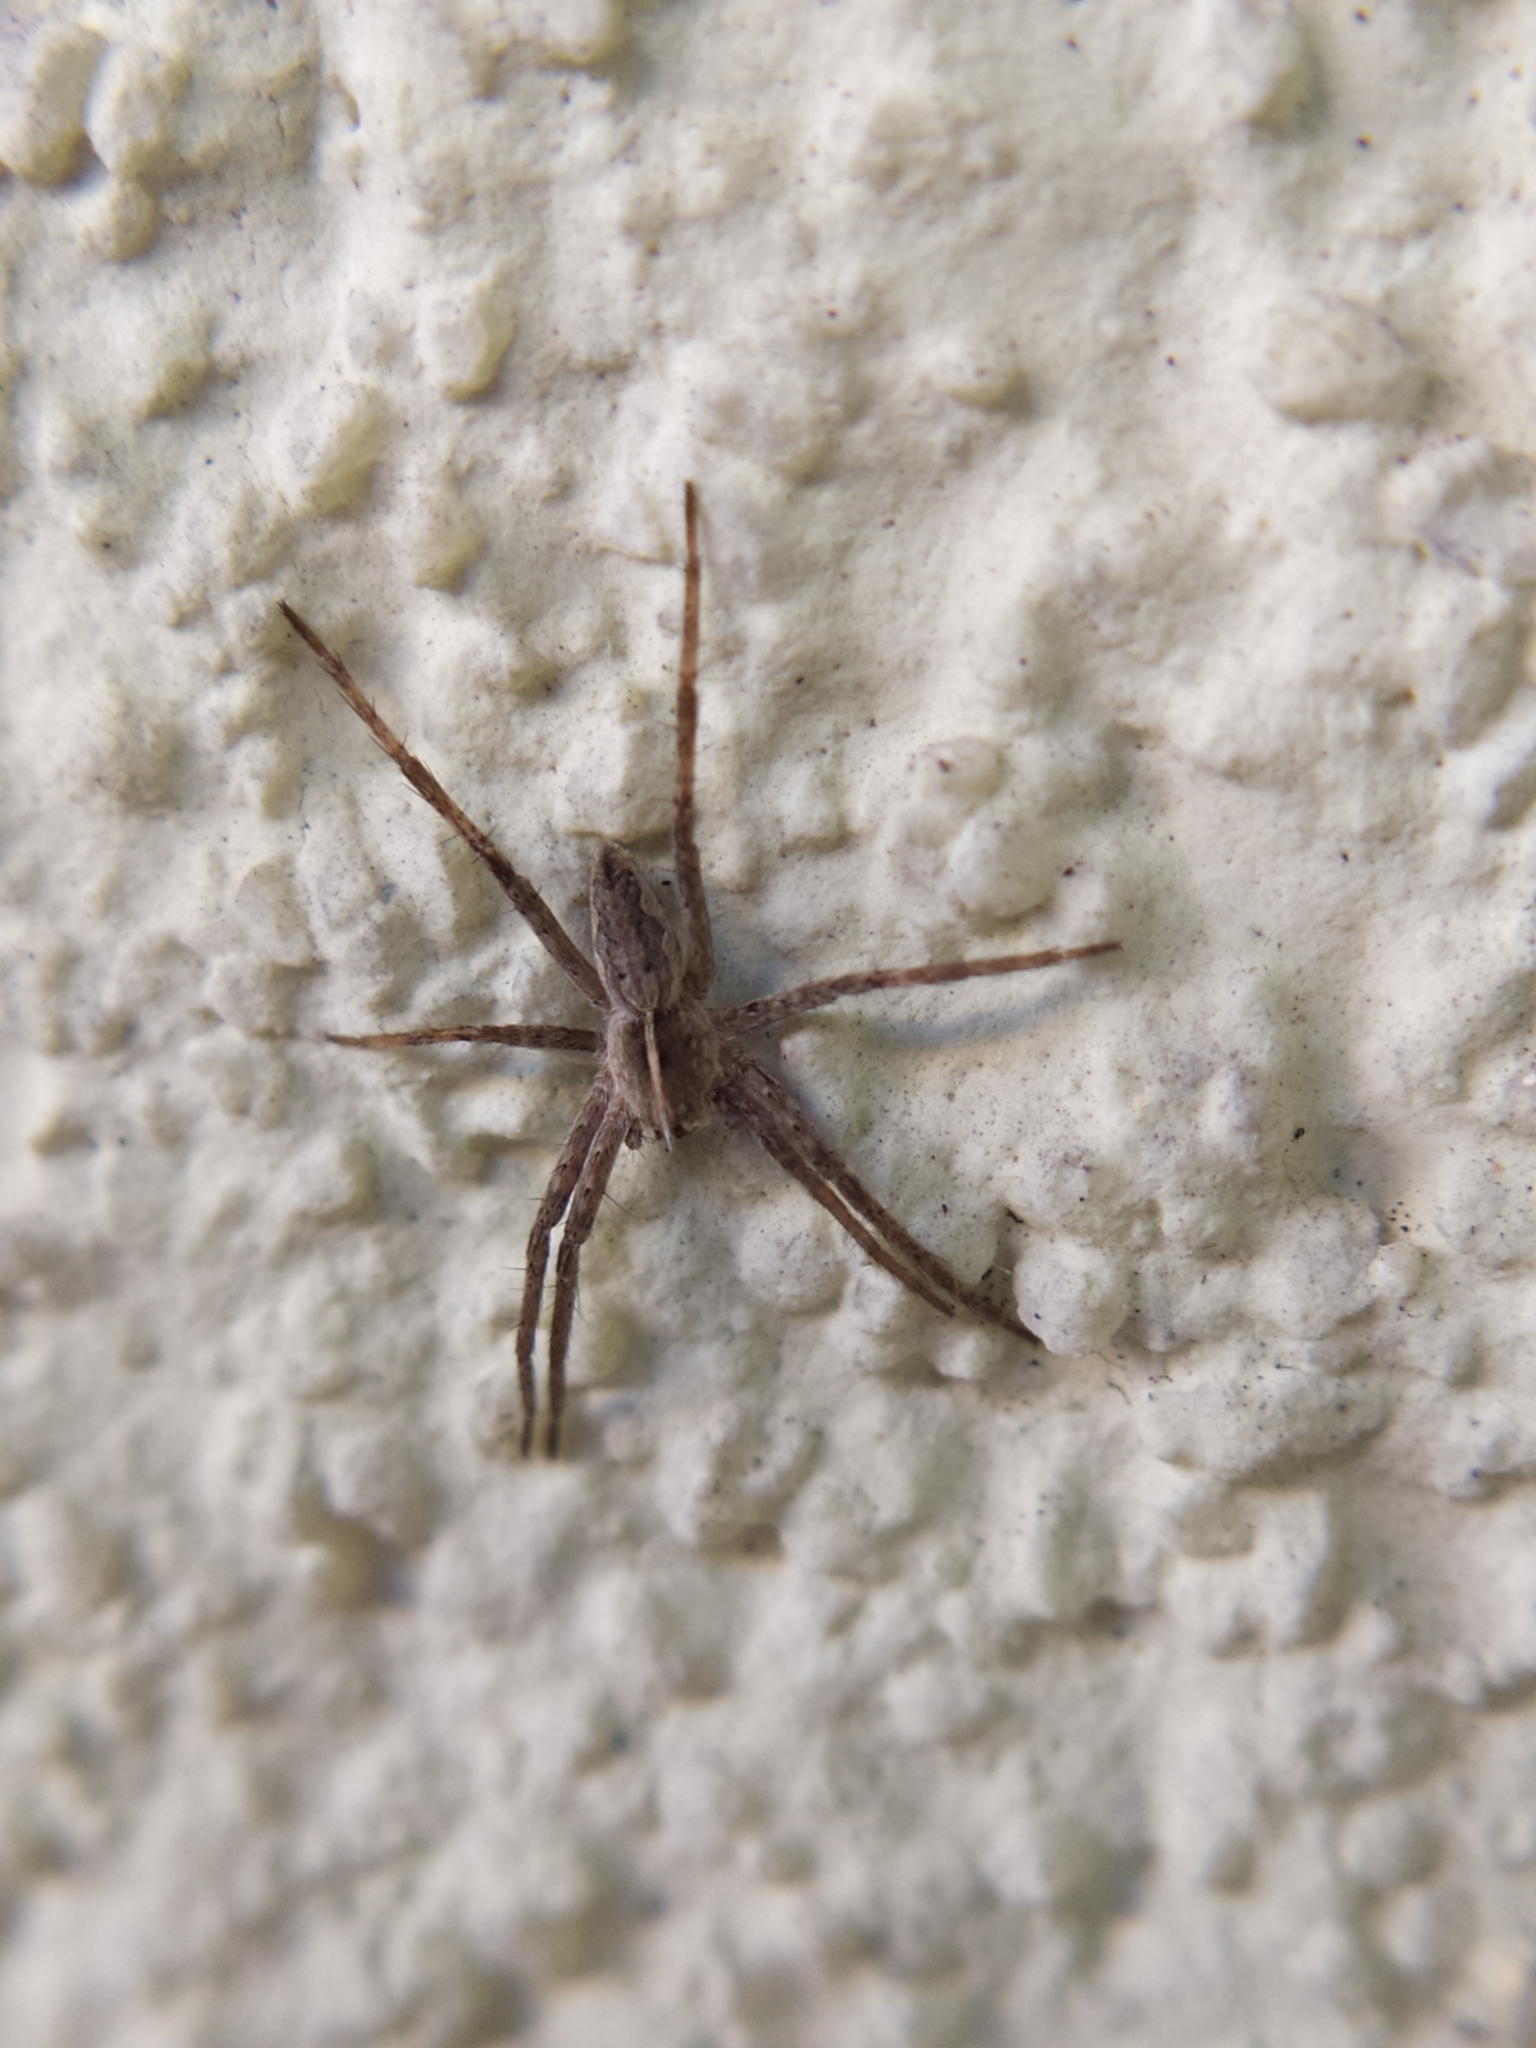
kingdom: Animalia
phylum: Arthropoda
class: Arachnida
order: Araneae
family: Pisauridae
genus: Pisaura
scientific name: Pisaura mirabilis
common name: Tent spider
